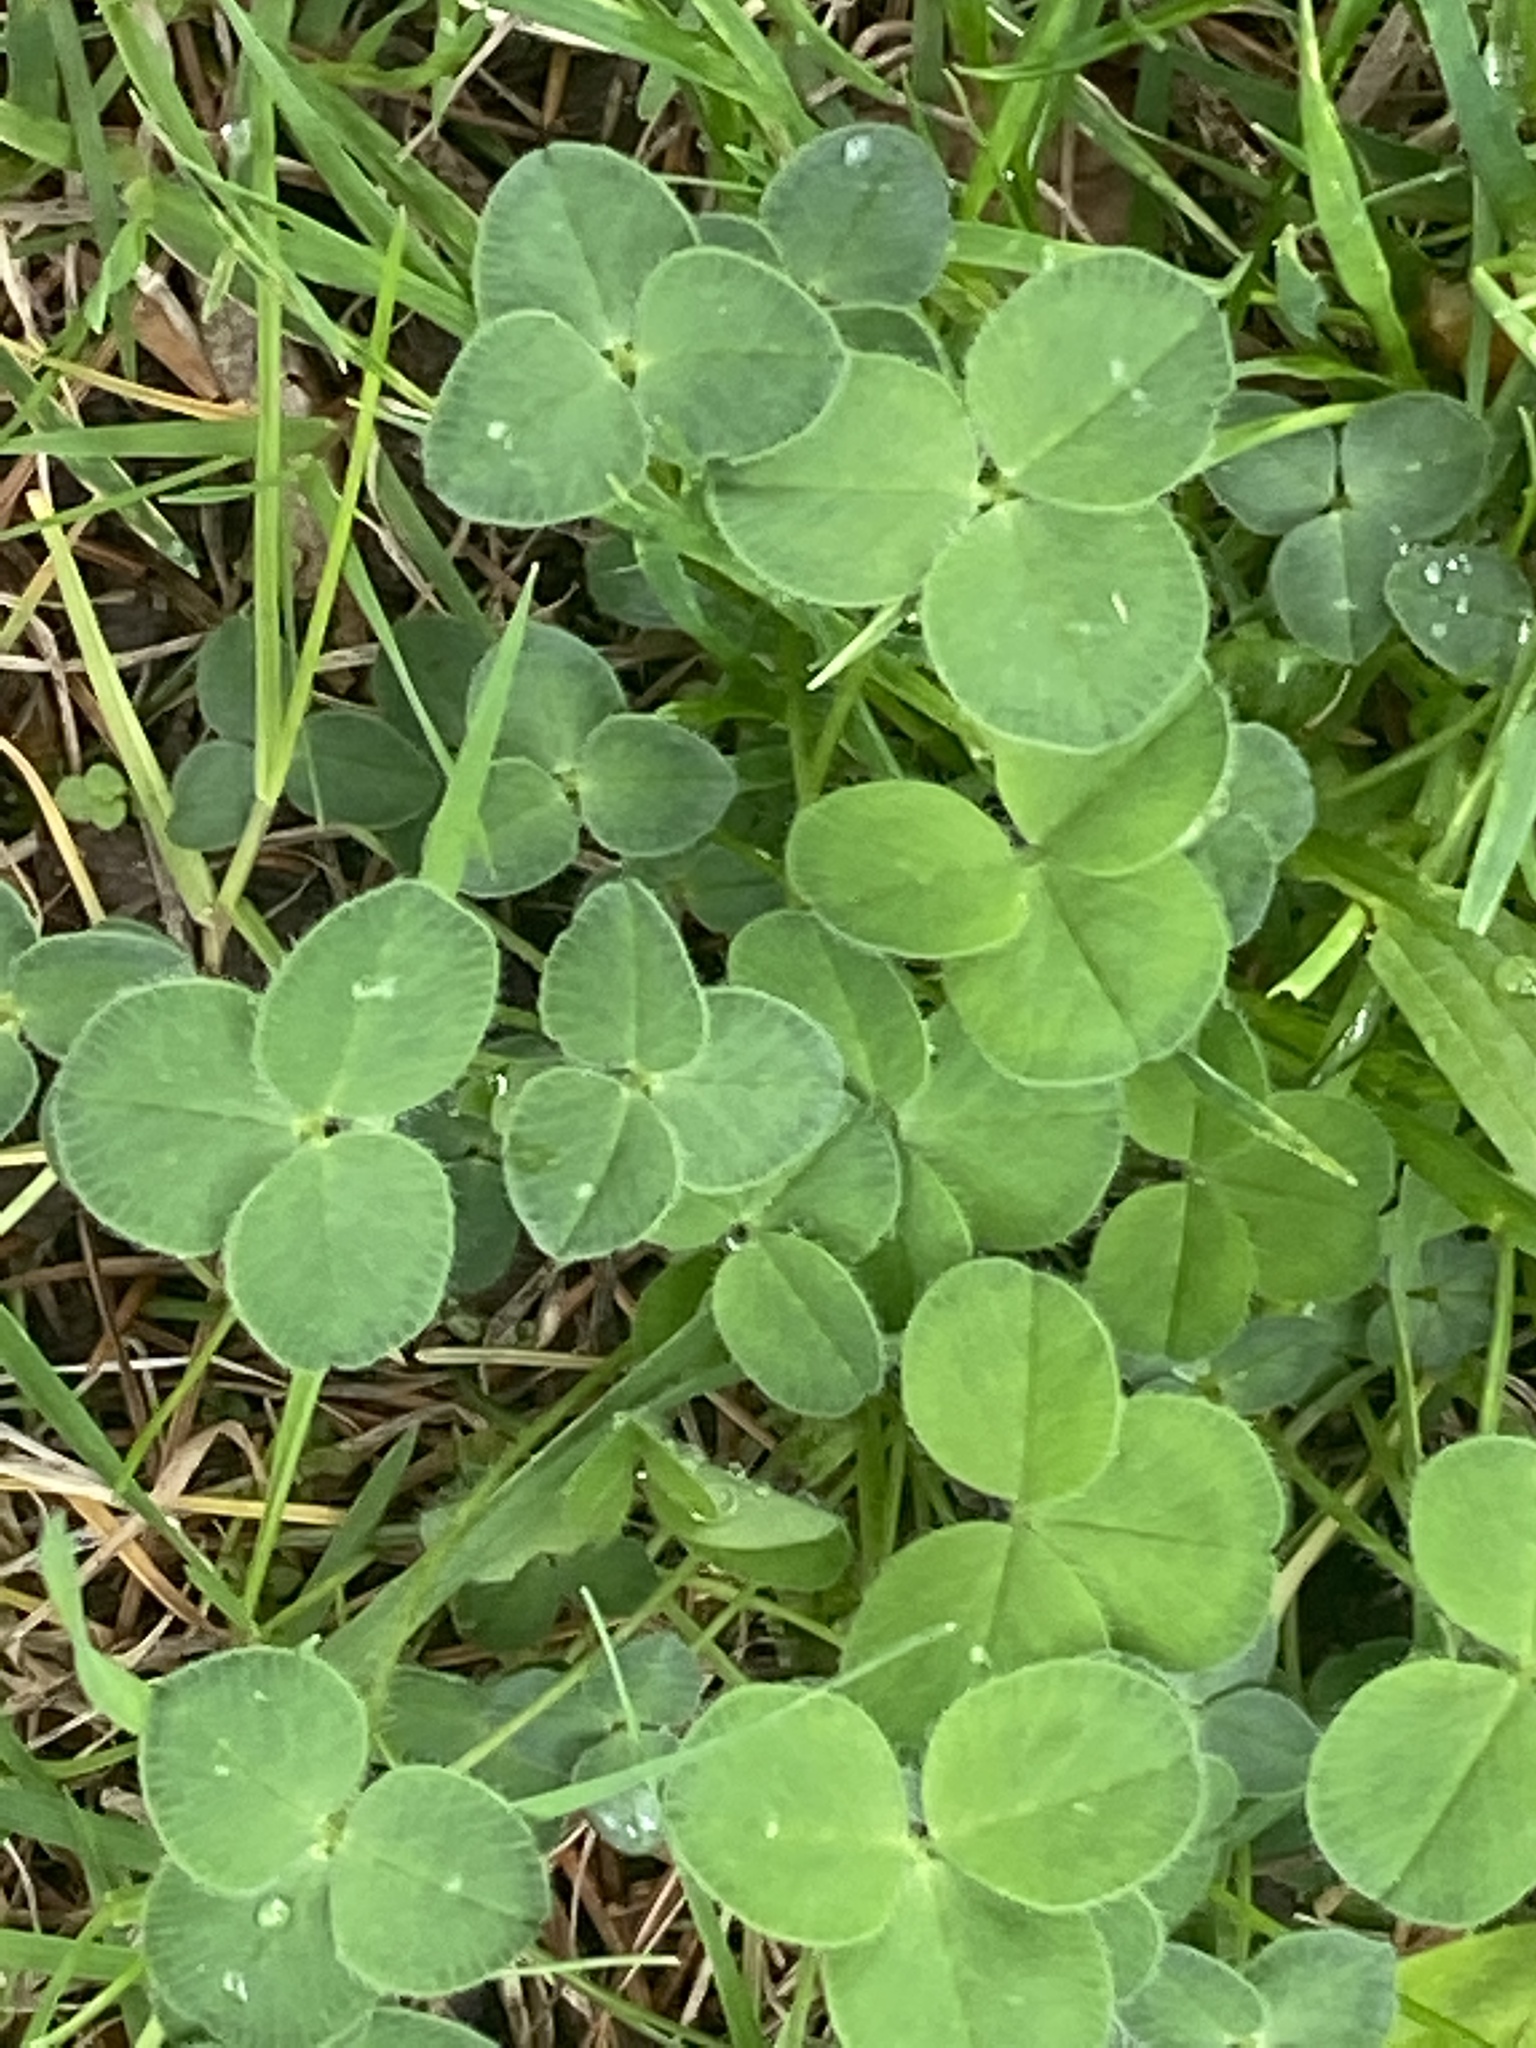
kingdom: Plantae
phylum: Tracheophyta
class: Magnoliopsida
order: Fabales
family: Fabaceae
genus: Trifolium
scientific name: Trifolium pratense
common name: Red clover
